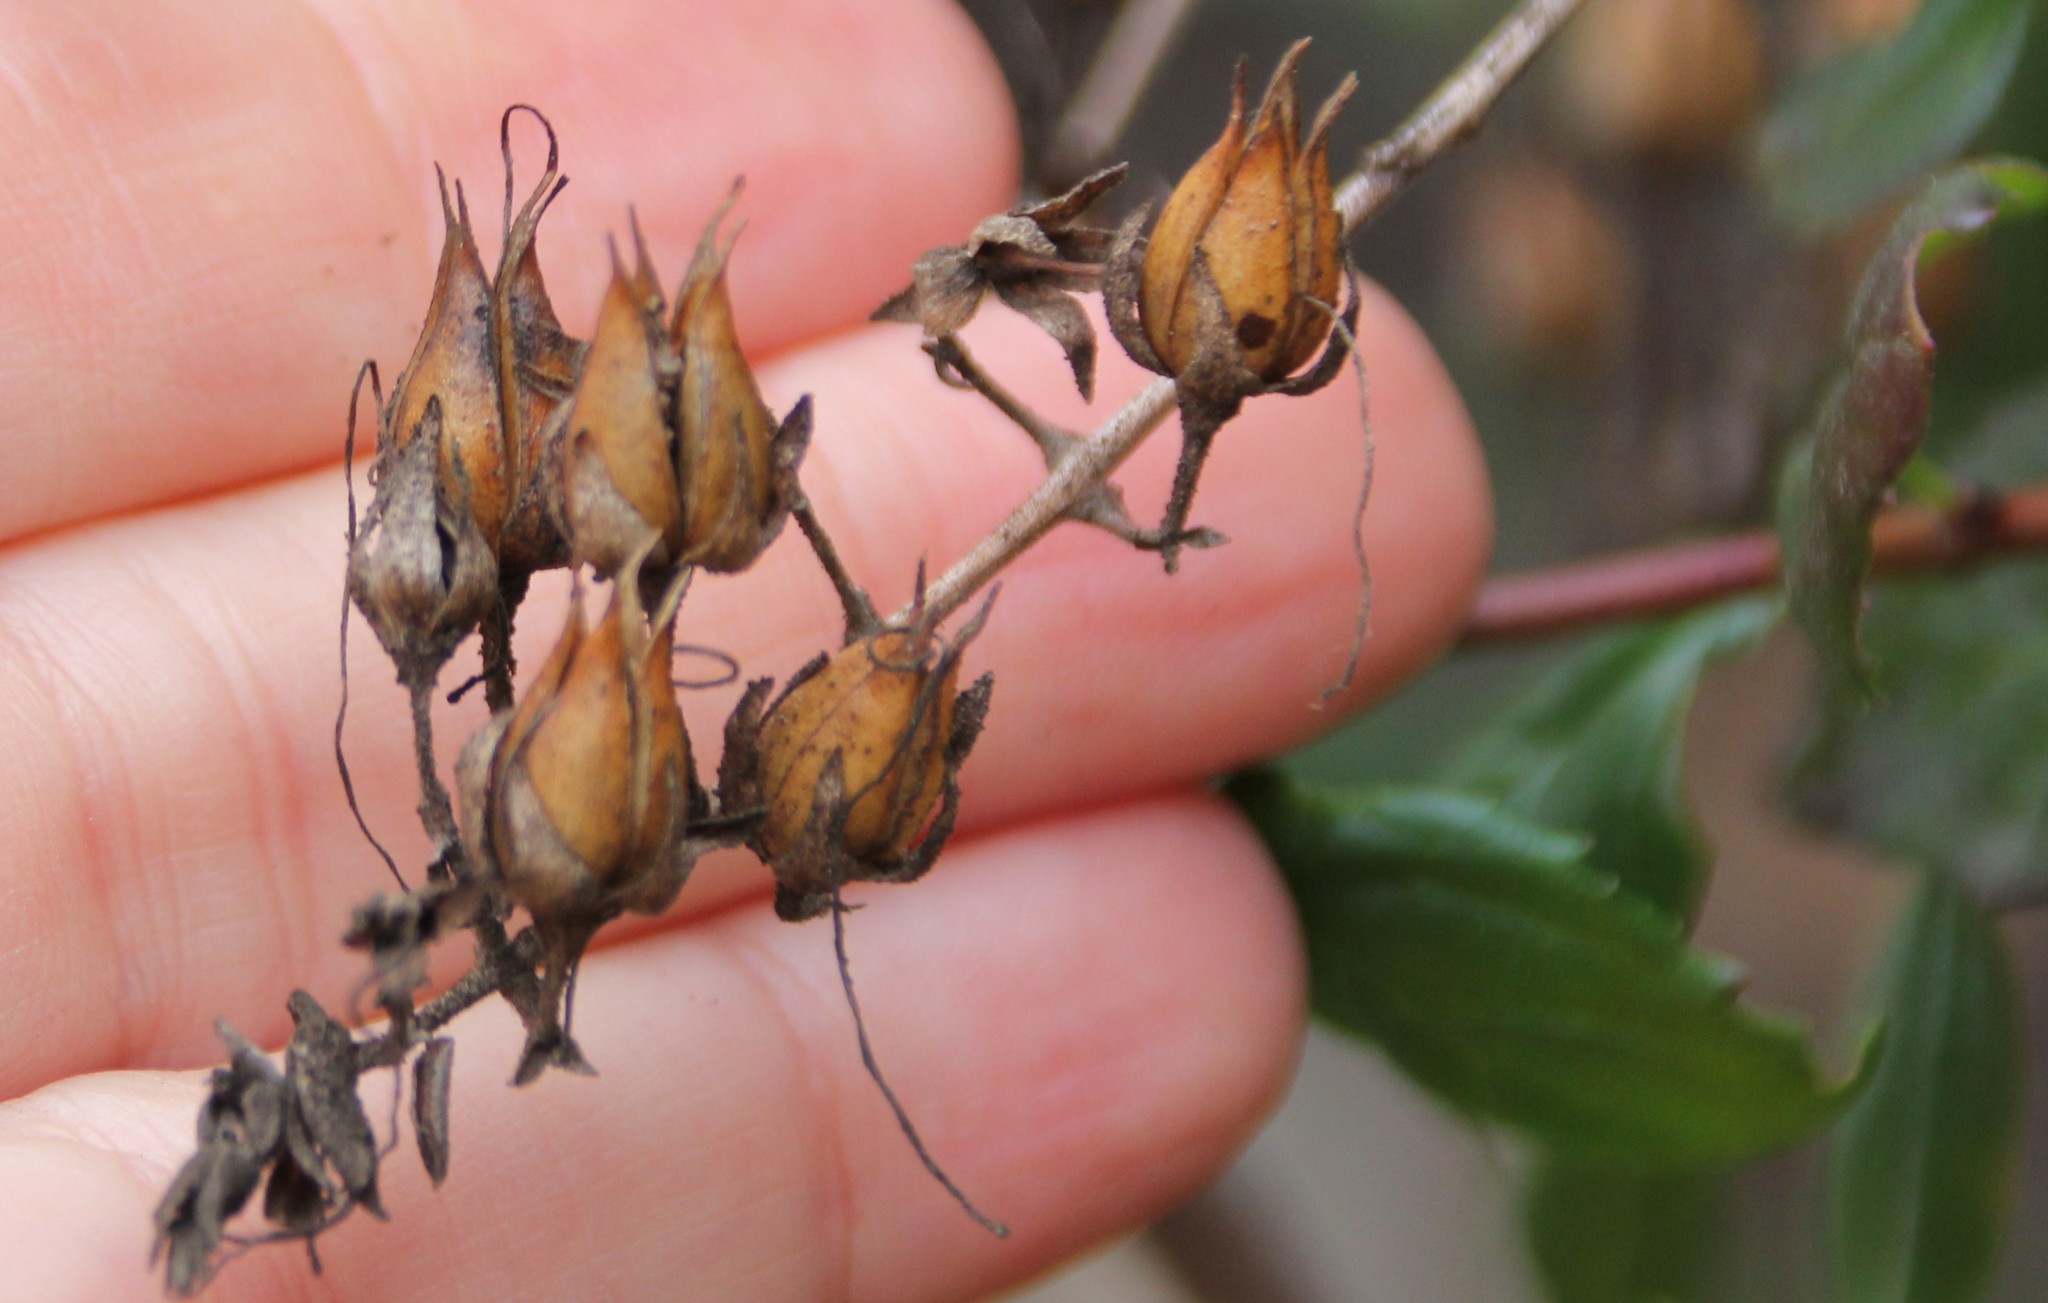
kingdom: Plantae
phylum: Tracheophyta
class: Magnoliopsida
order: Lamiales
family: Plantaginaceae
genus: Keckiella
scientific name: Keckiella cordifolia
